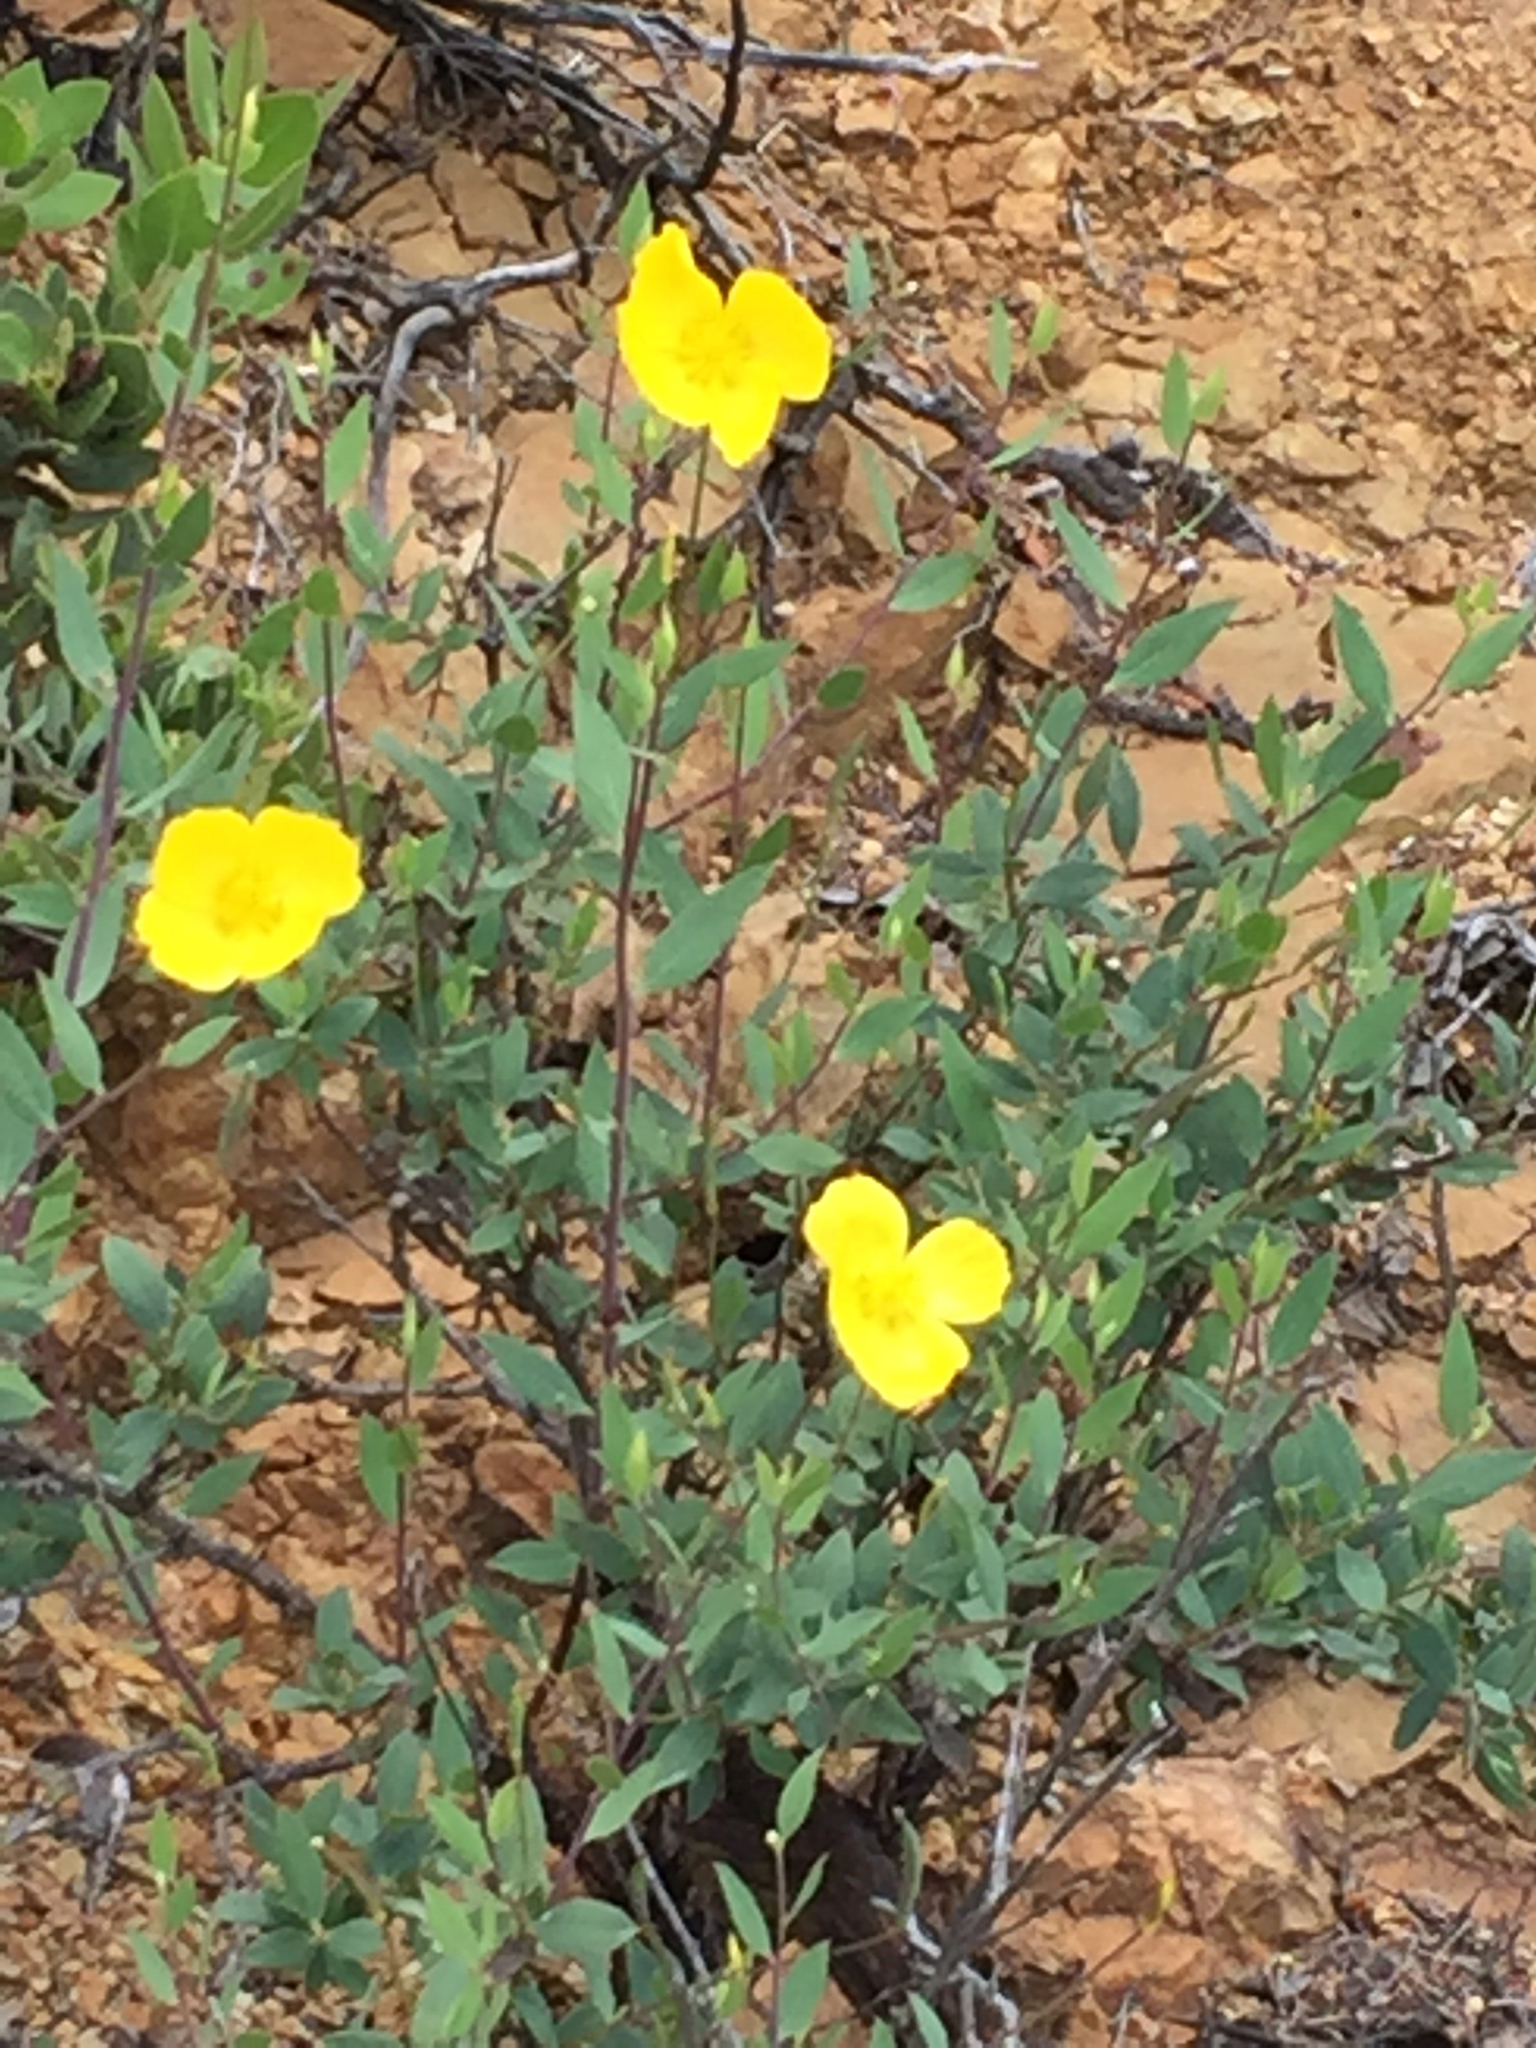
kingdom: Plantae
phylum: Tracheophyta
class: Magnoliopsida
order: Ranunculales
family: Papaveraceae
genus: Dendromecon
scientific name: Dendromecon rigida
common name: Tree poppy
